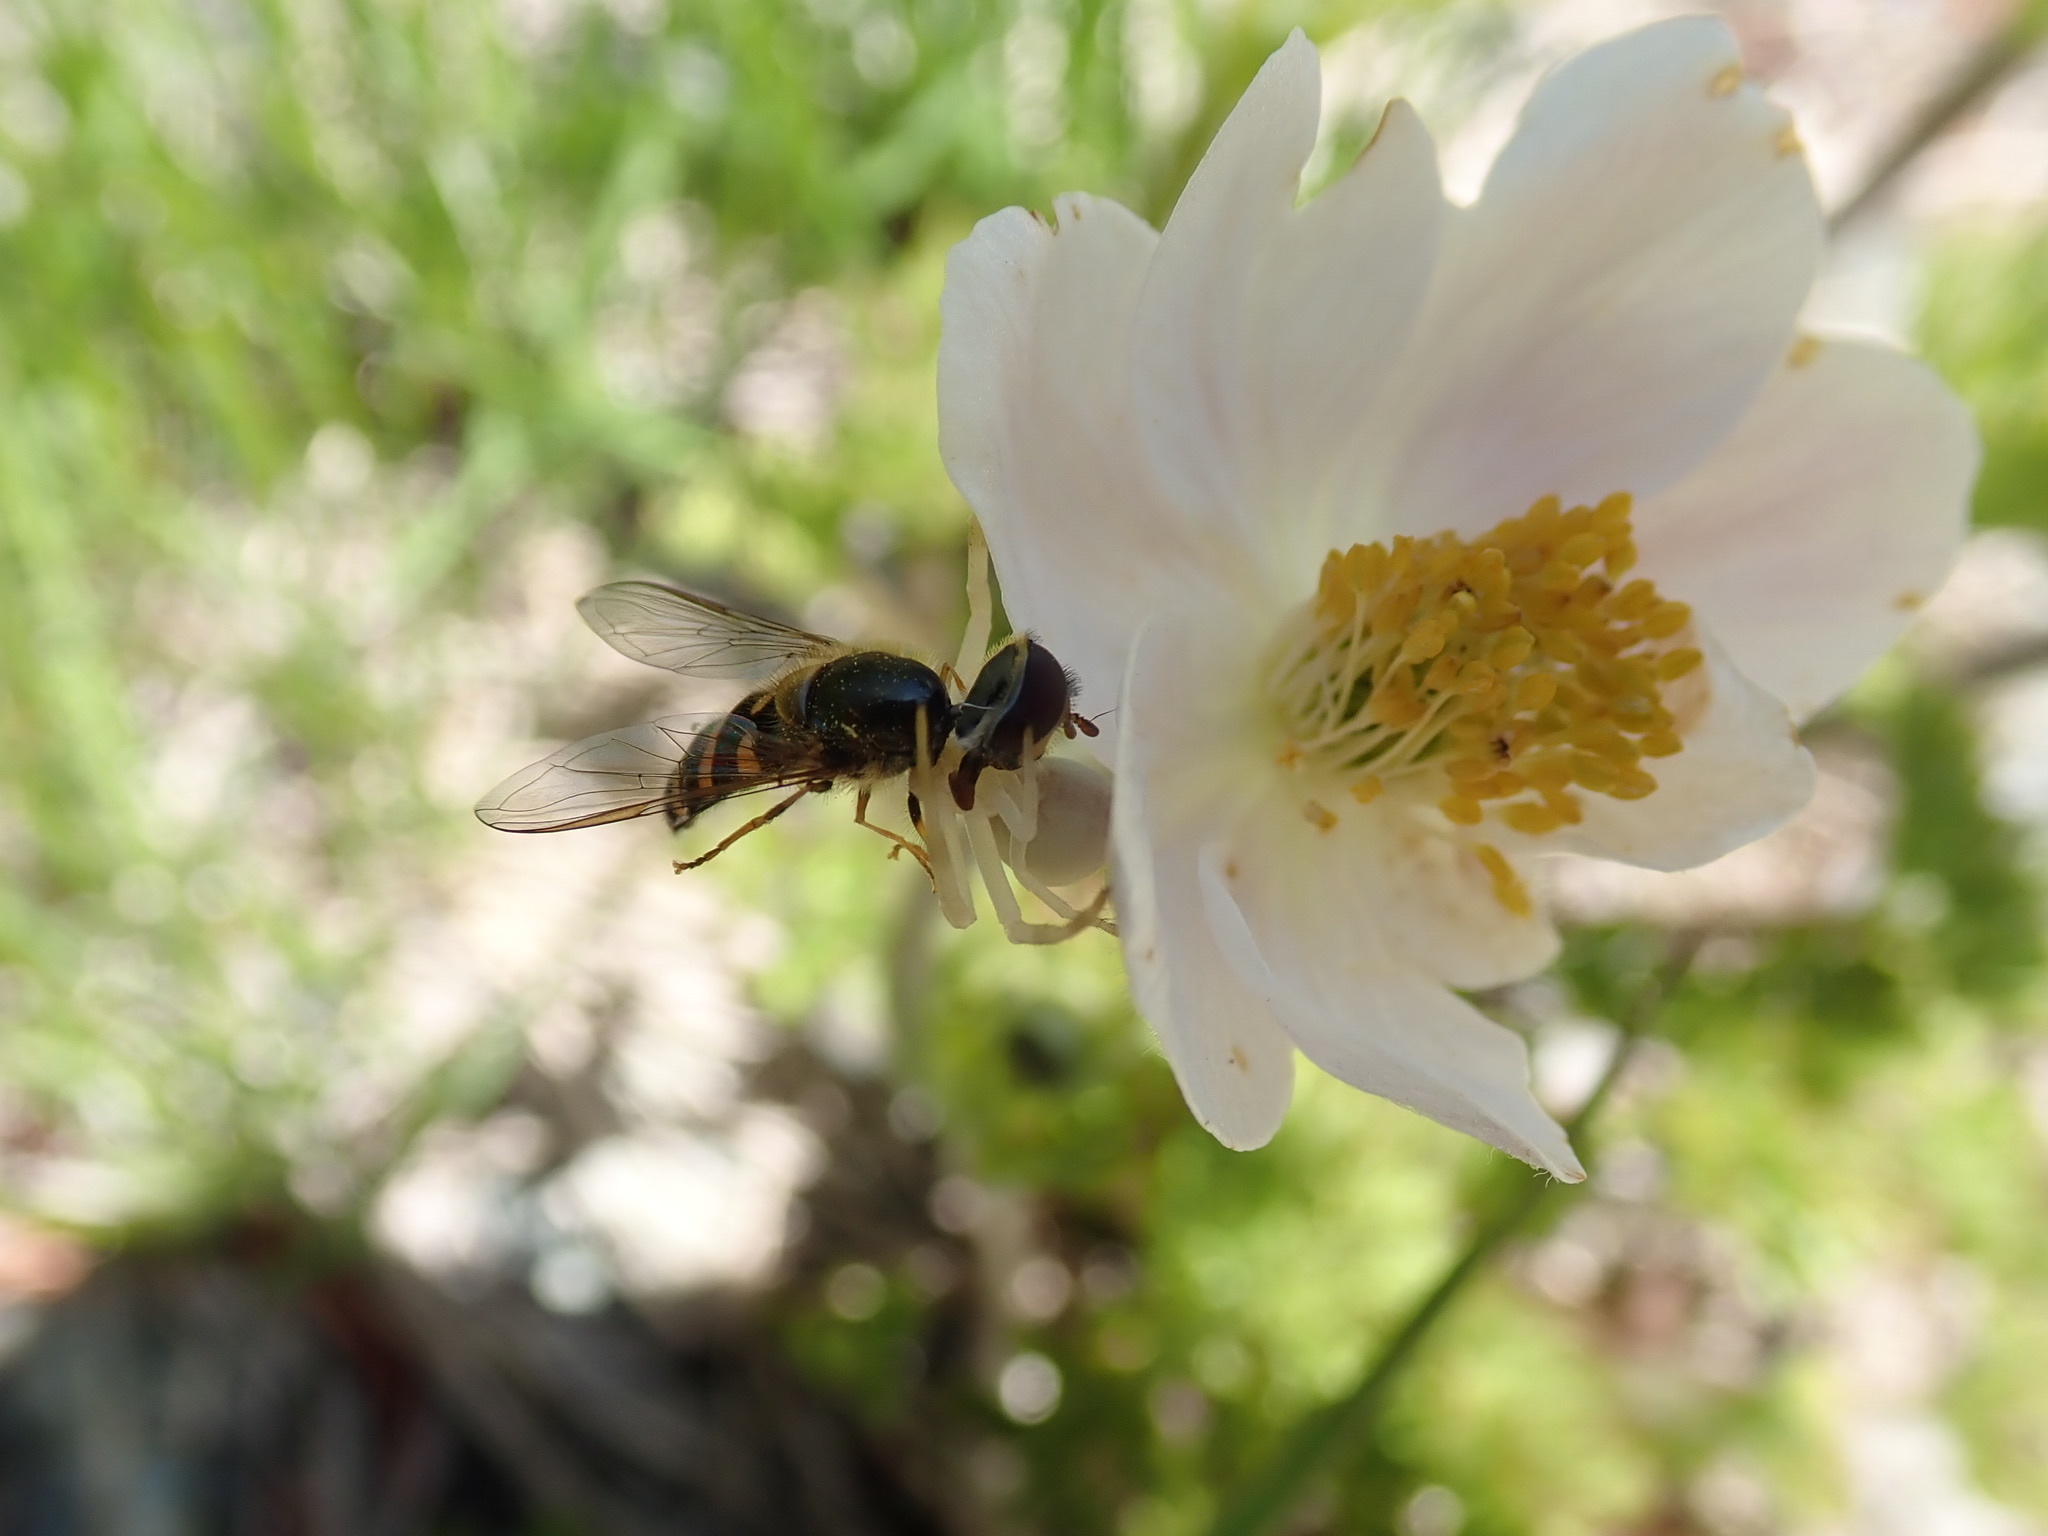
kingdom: Animalia
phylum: Arthropoda
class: Arachnida
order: Araneae
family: Thomisidae
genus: Misumena
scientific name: Misumena vatia
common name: Goldenrod crab spider
